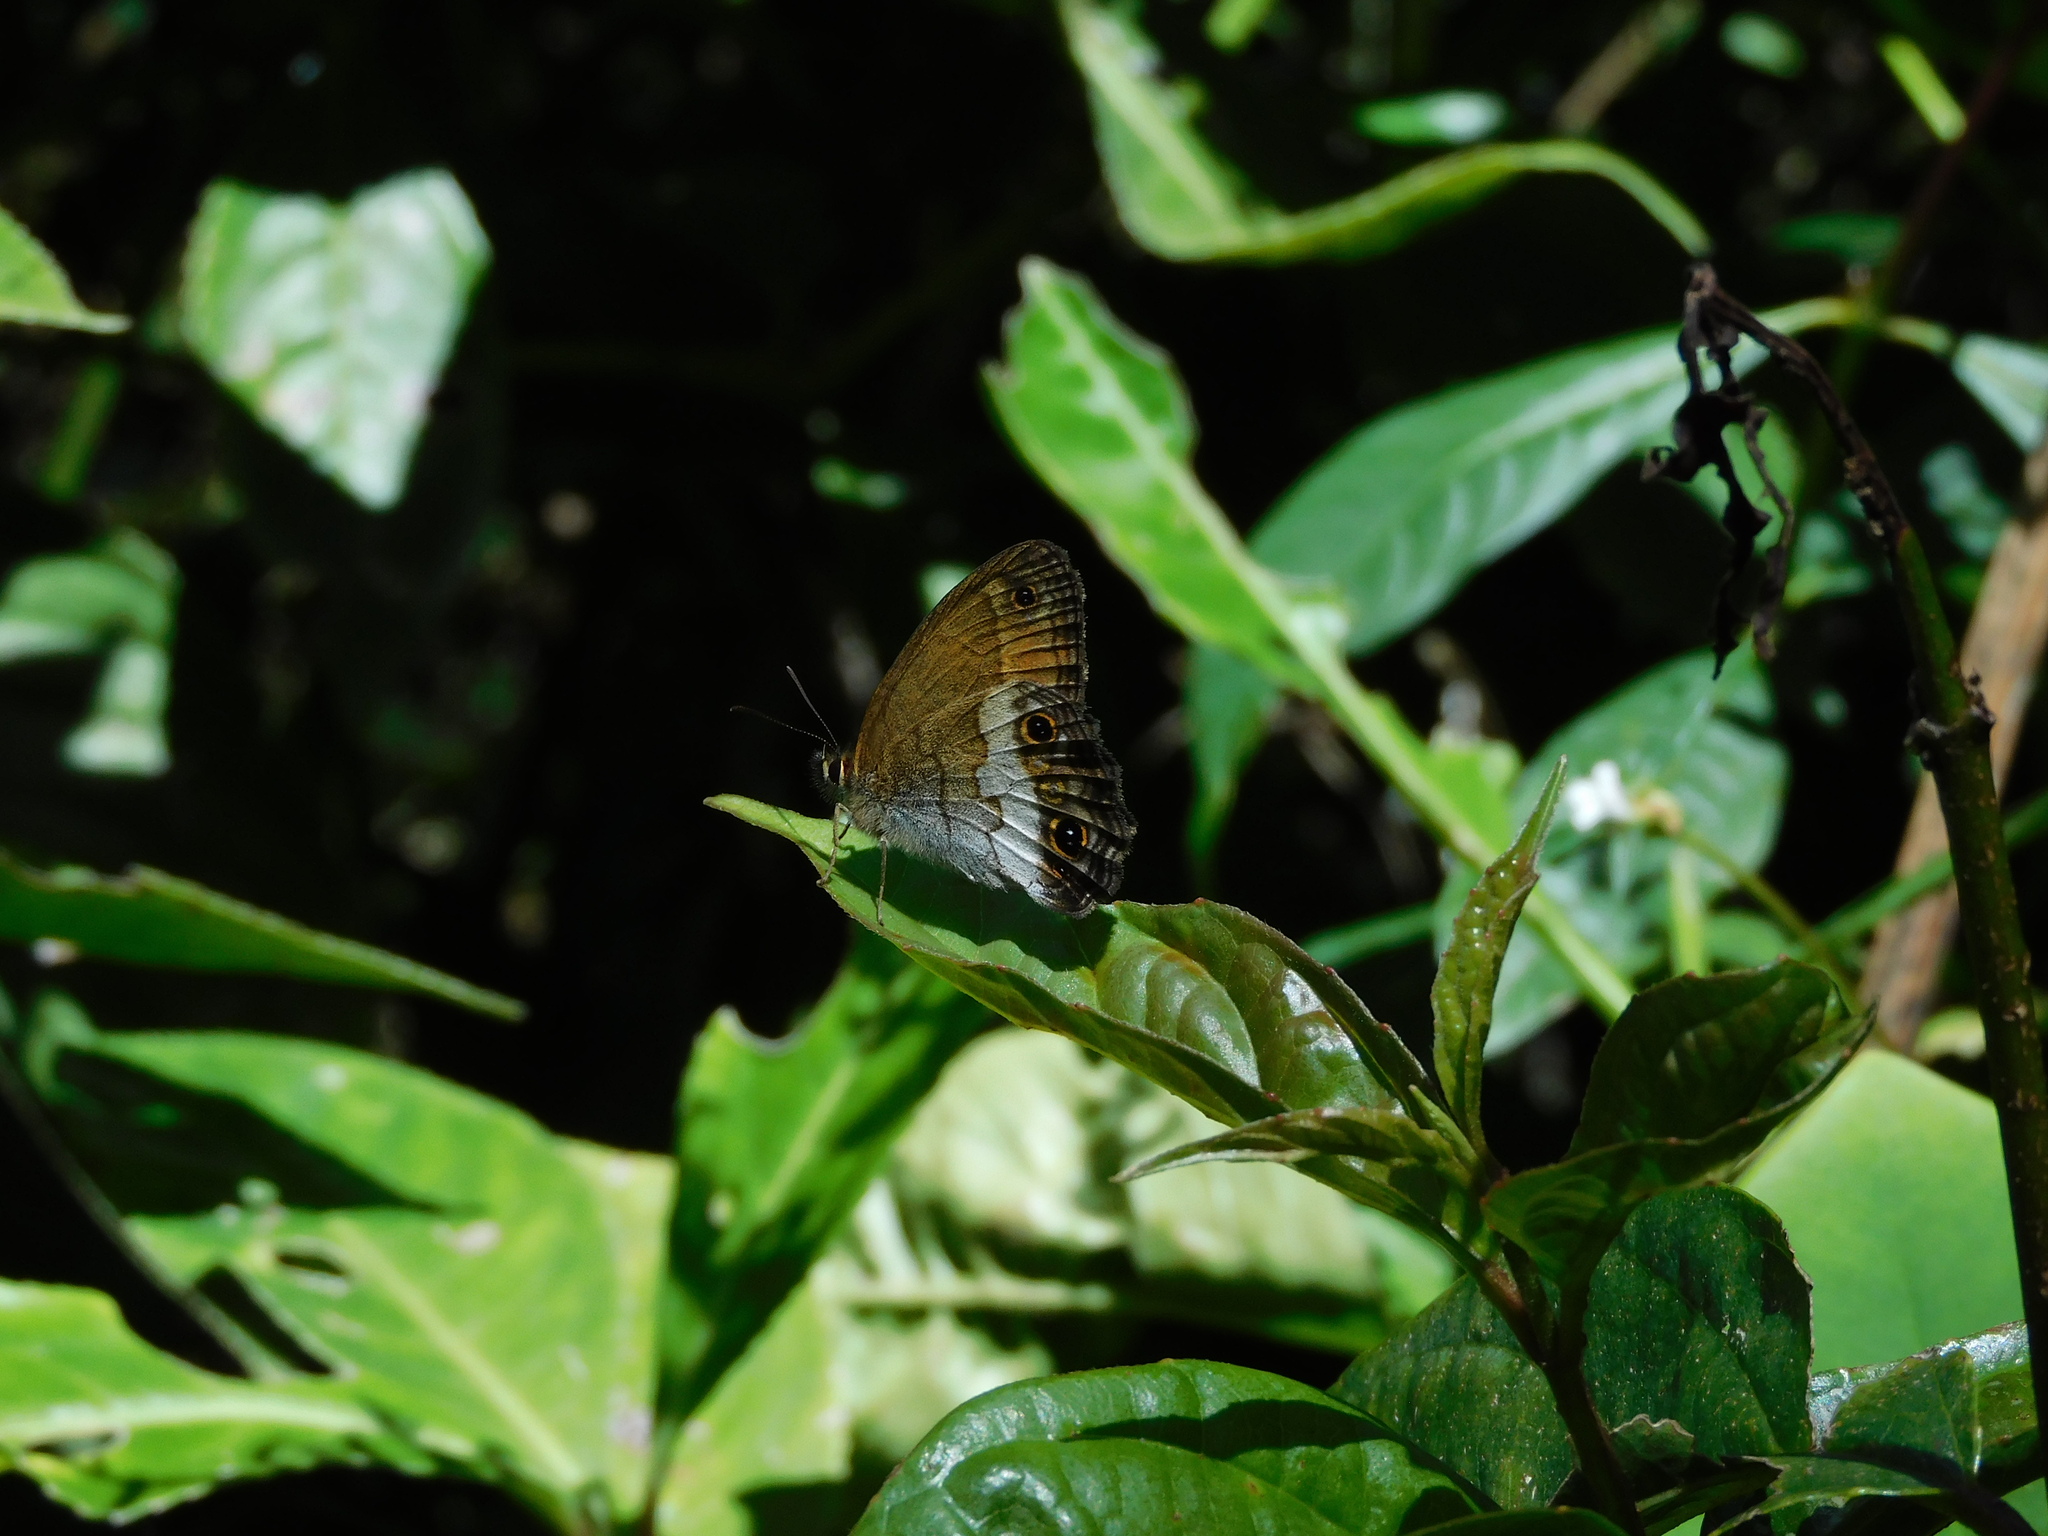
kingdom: Animalia
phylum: Arthropoda
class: Insecta
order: Lepidoptera
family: Nymphalidae
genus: Graphita
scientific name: Graphita griphe
